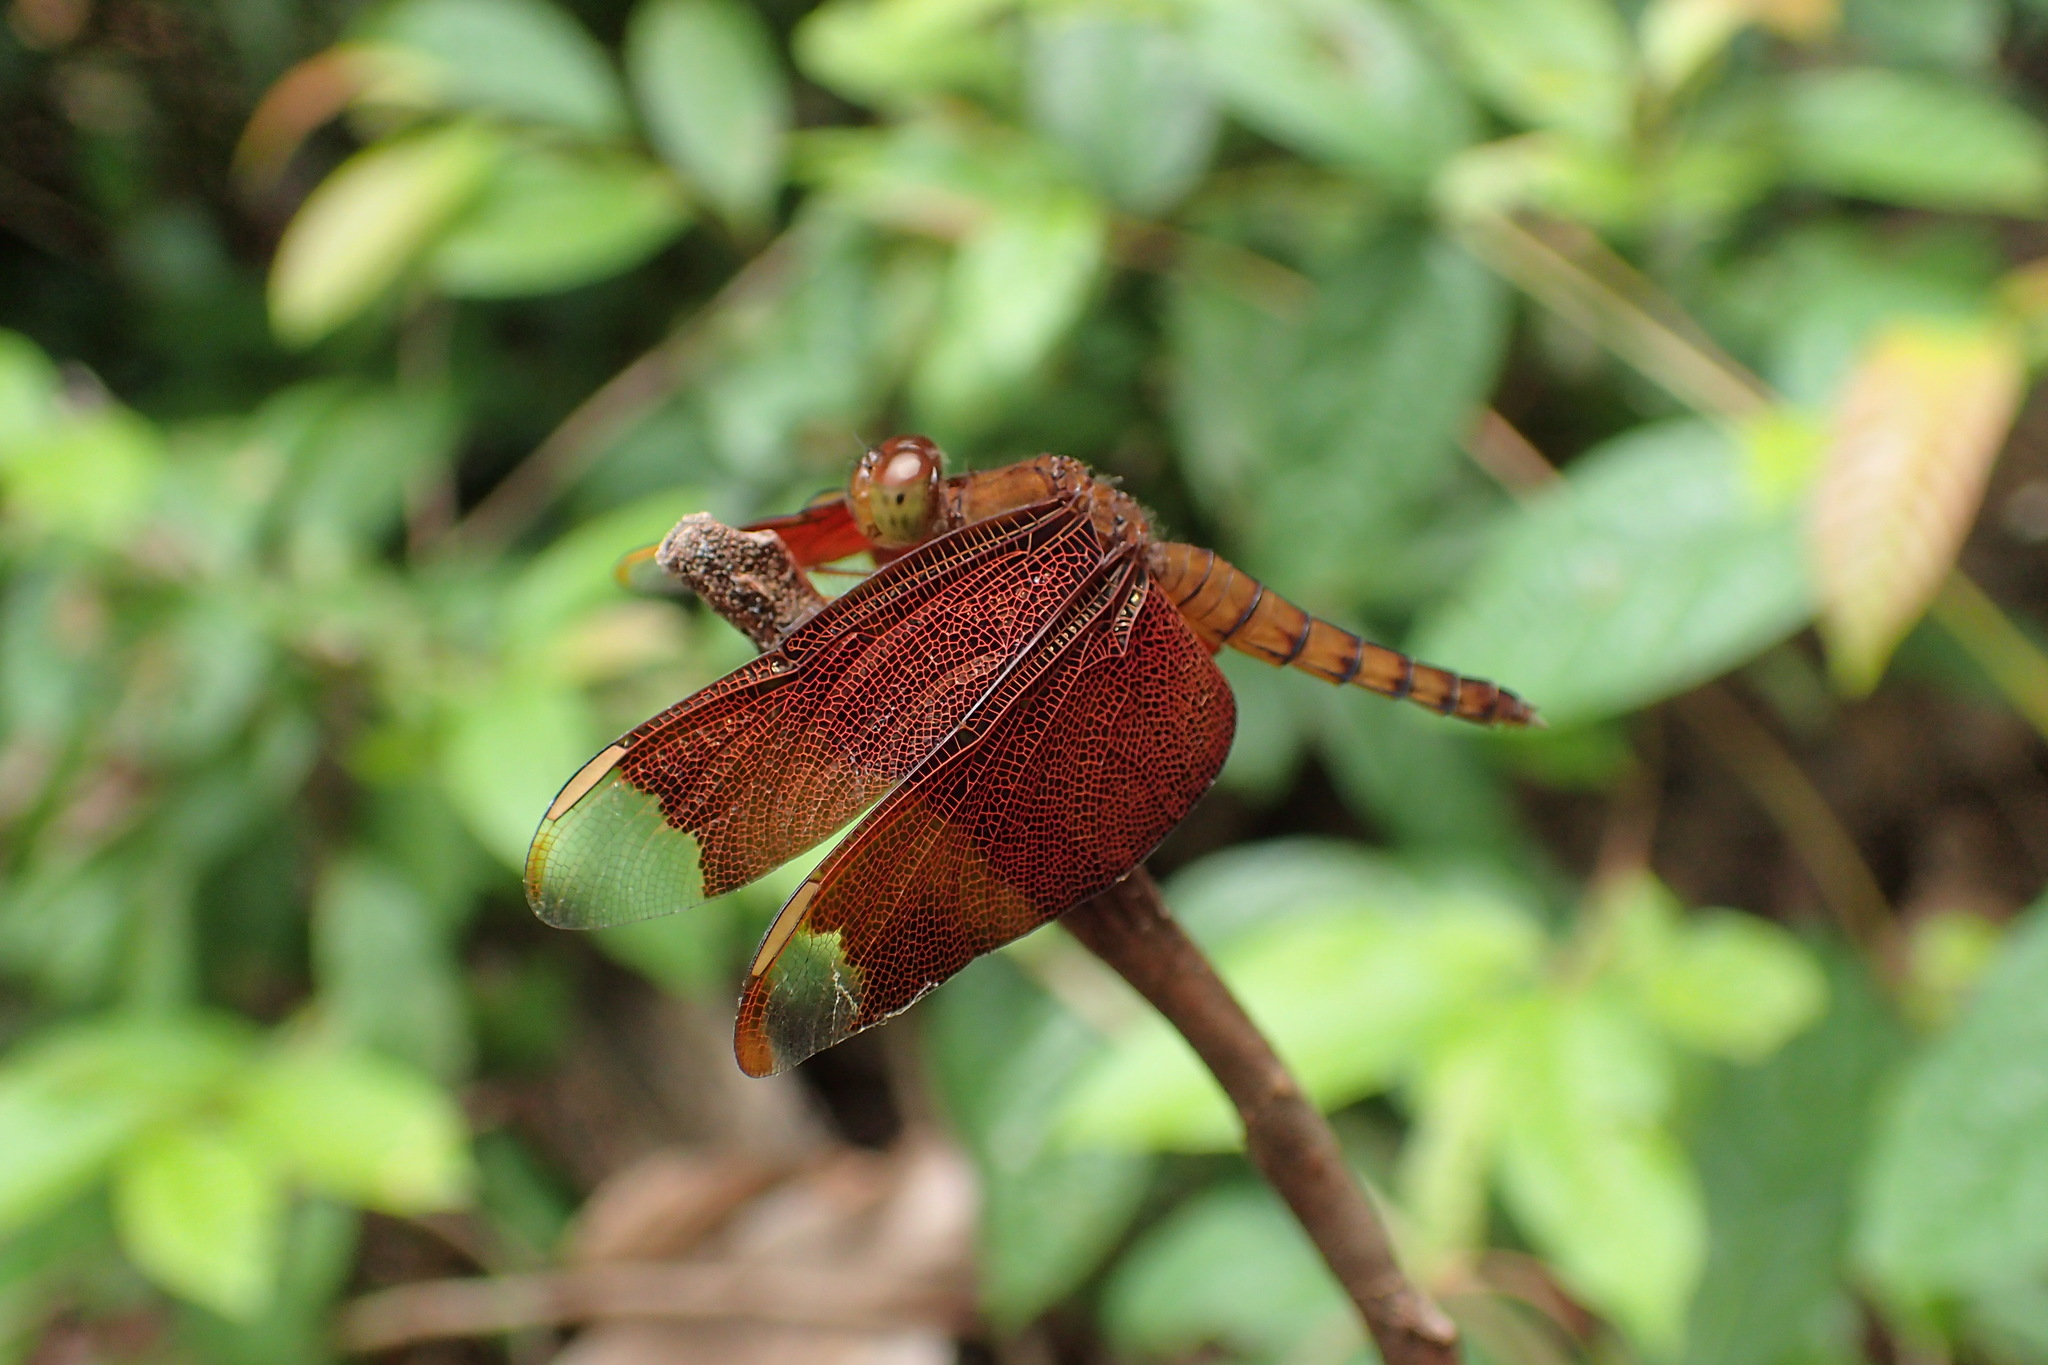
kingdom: Animalia
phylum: Arthropoda
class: Insecta
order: Odonata
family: Libellulidae
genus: Neurothemis
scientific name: Neurothemis fulvia
